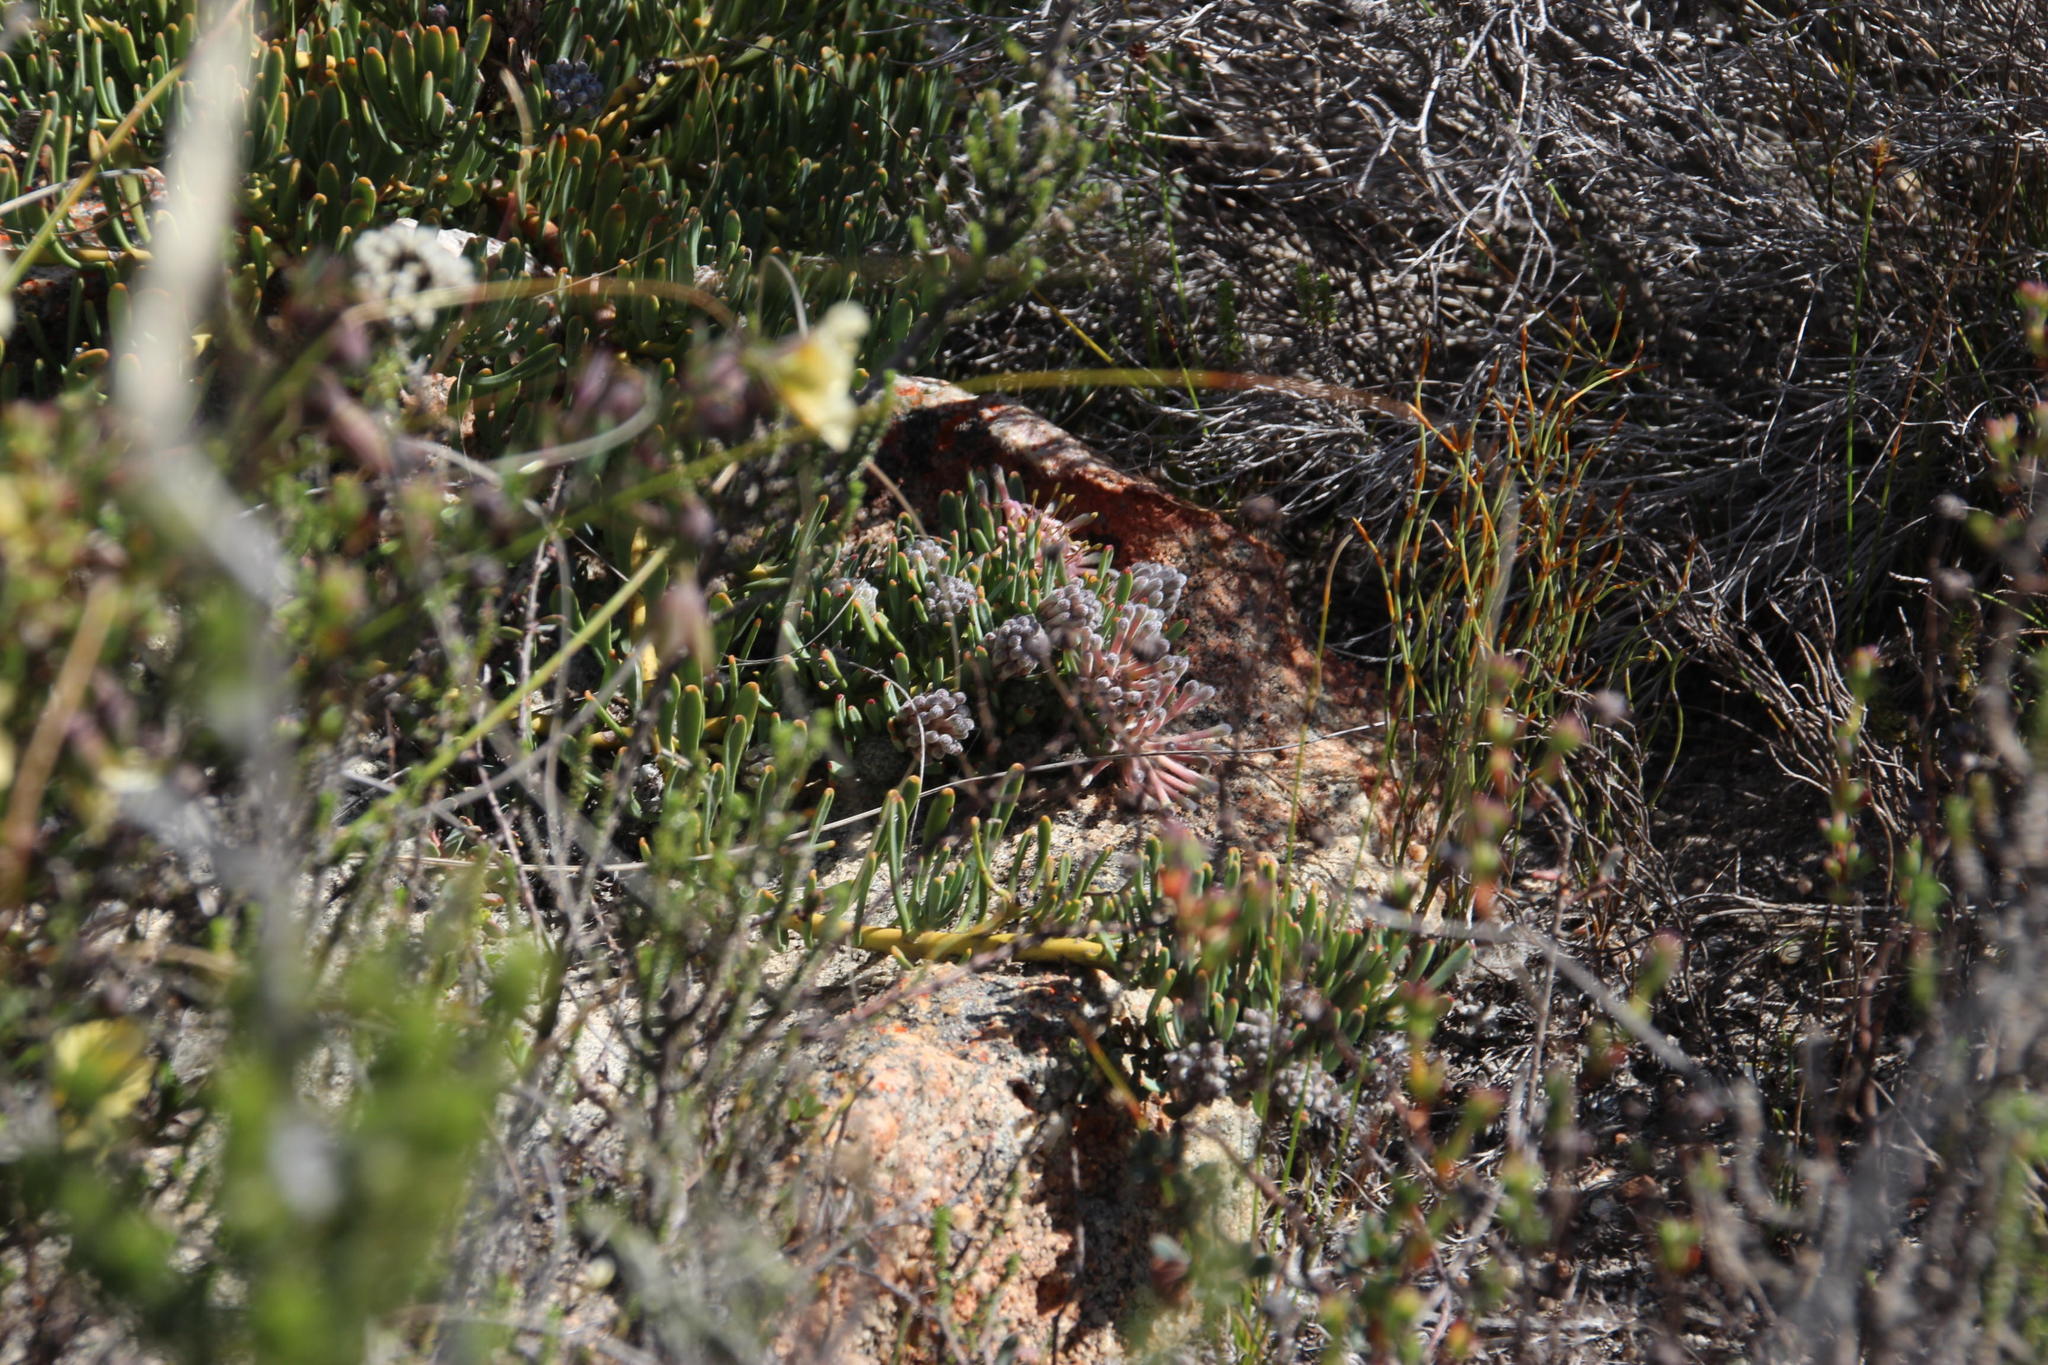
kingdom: Plantae
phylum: Tracheophyta
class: Magnoliopsida
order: Proteales
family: Proteaceae
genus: Vexatorella
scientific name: Vexatorella obtusata
